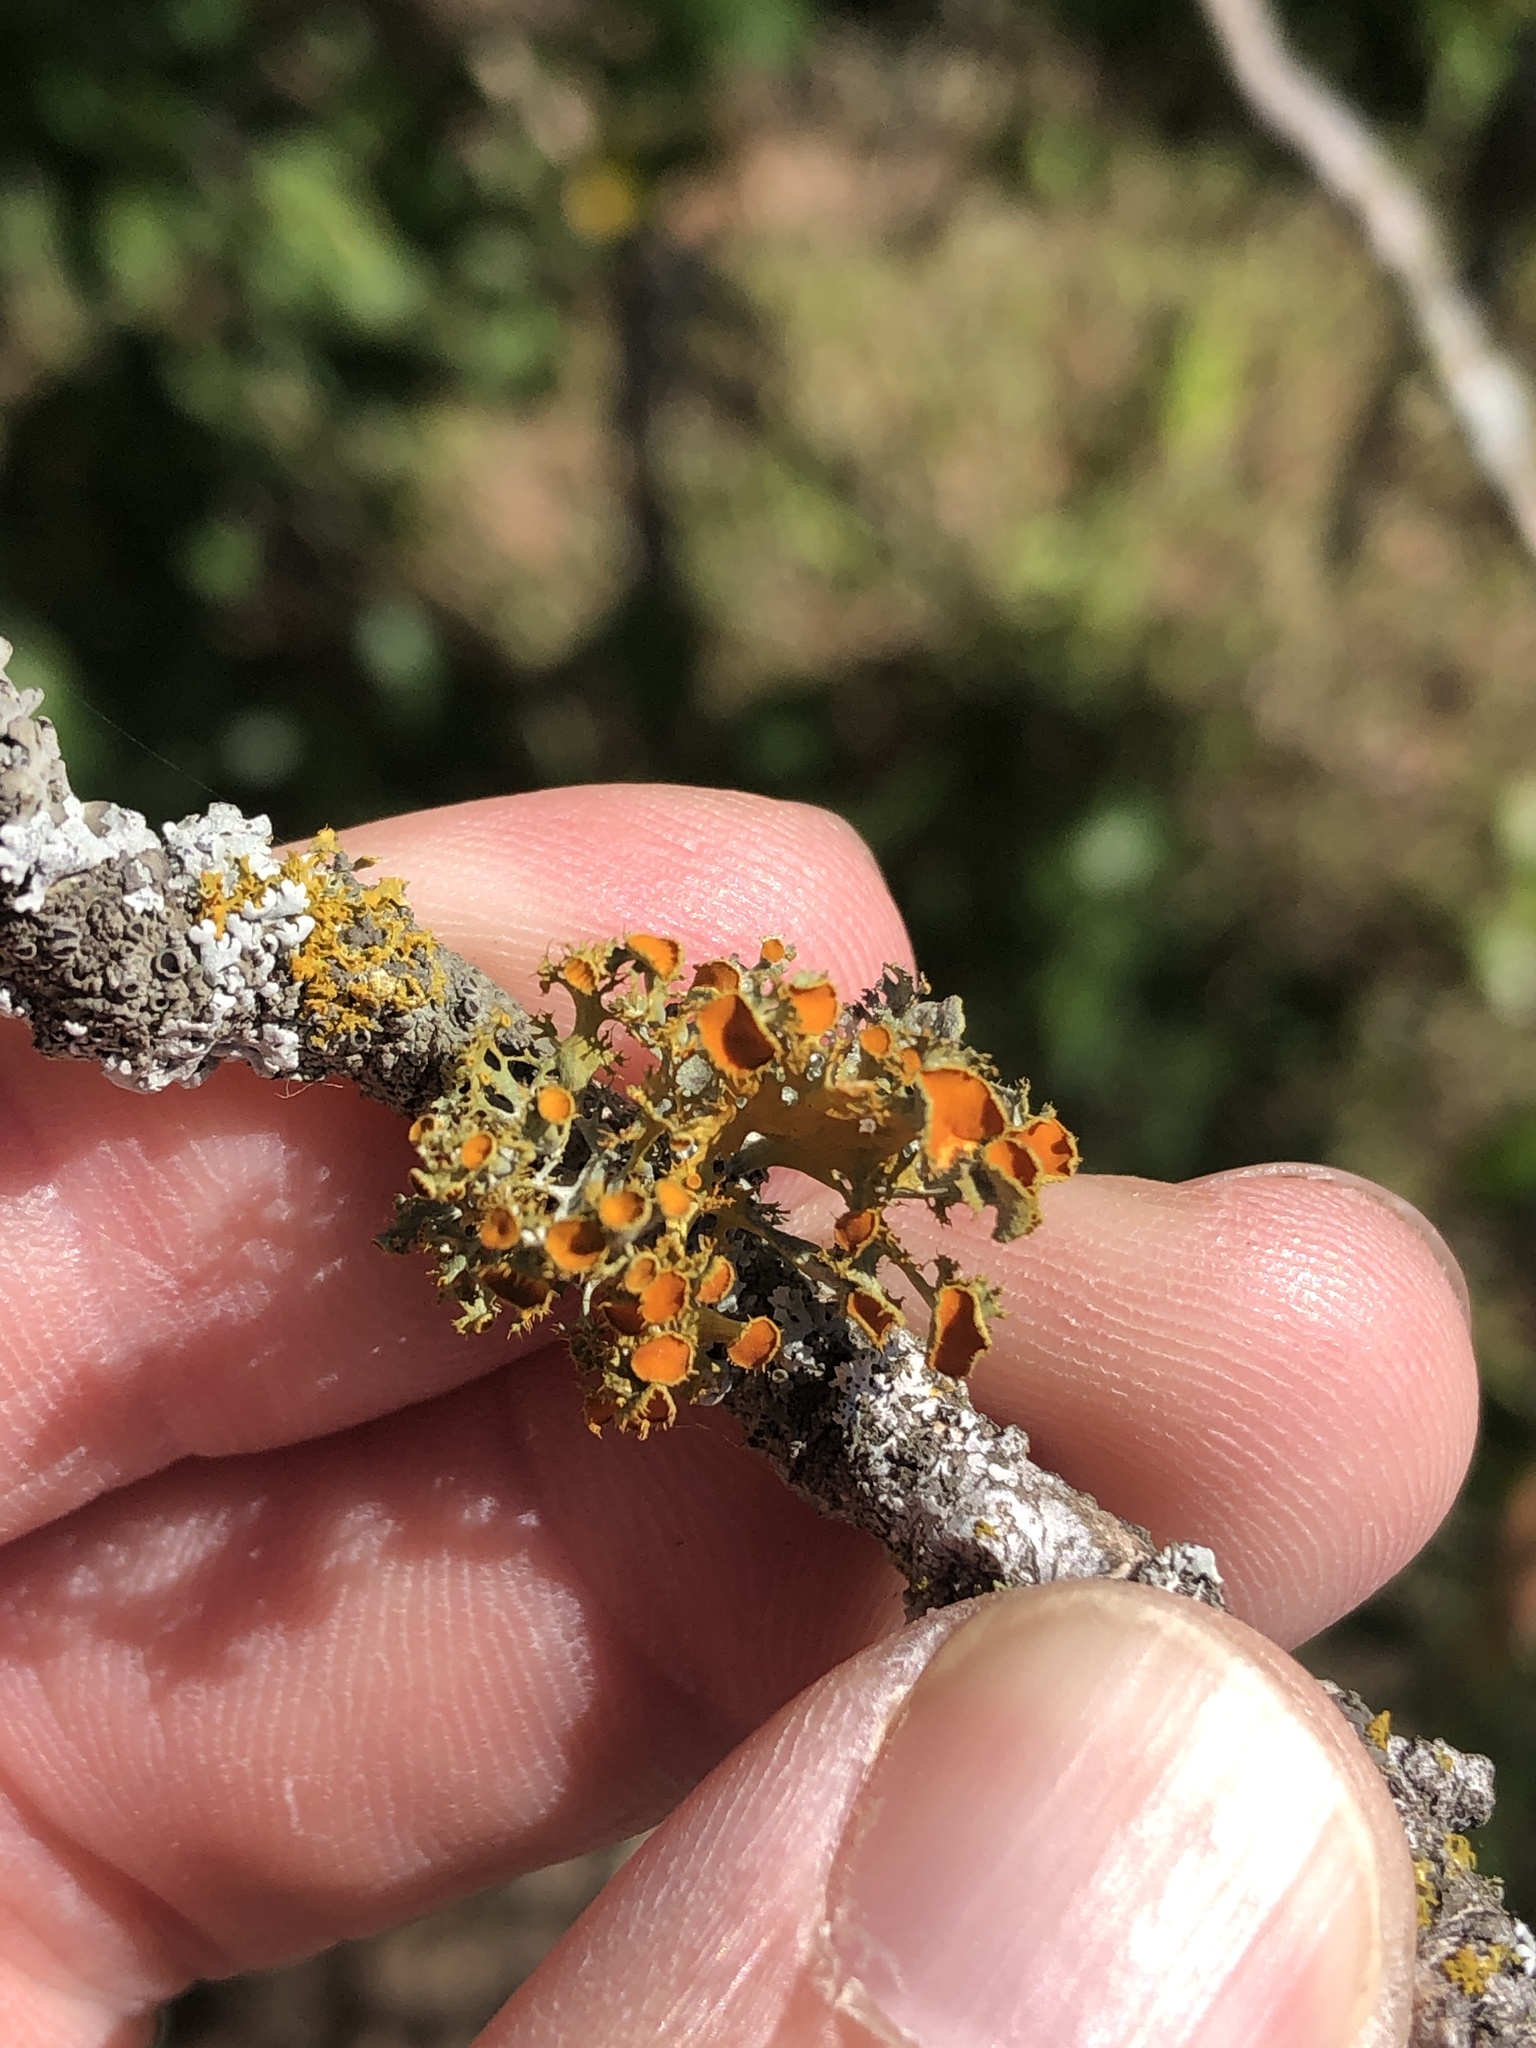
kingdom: Fungi
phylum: Ascomycota
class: Lecanoromycetes
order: Teloschistales
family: Teloschistaceae
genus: Niorma
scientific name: Niorma chrysophthalma
